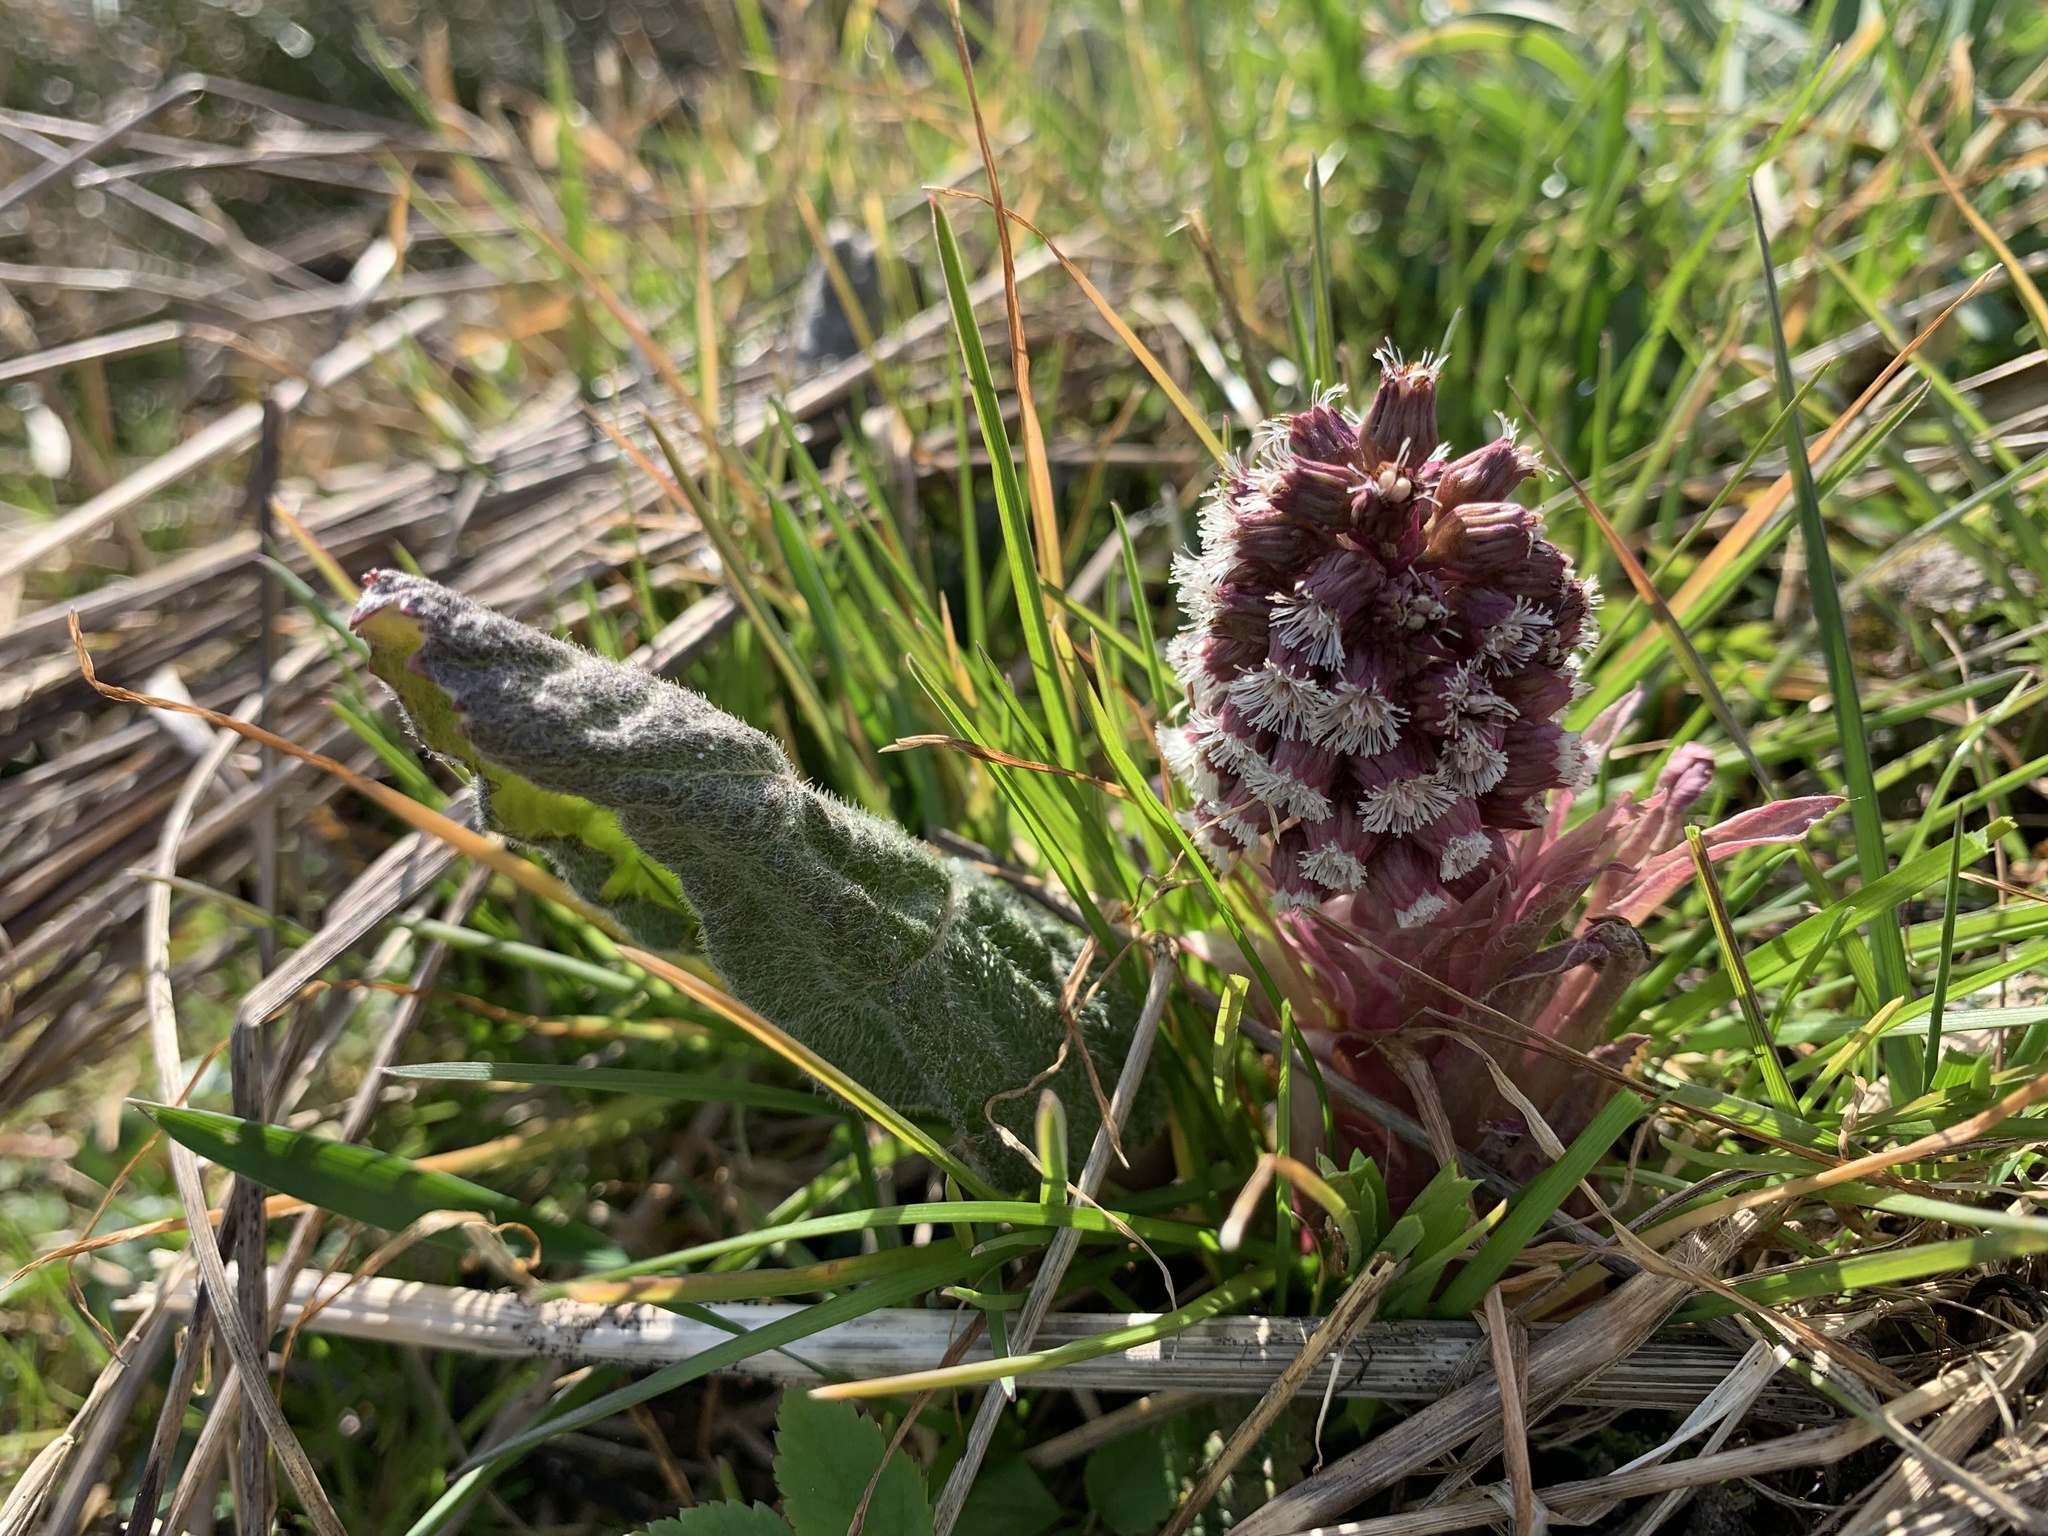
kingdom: Plantae
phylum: Tracheophyta
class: Magnoliopsida
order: Asterales
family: Asteraceae
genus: Petasites
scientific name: Petasites hybridus
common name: Butterbur
